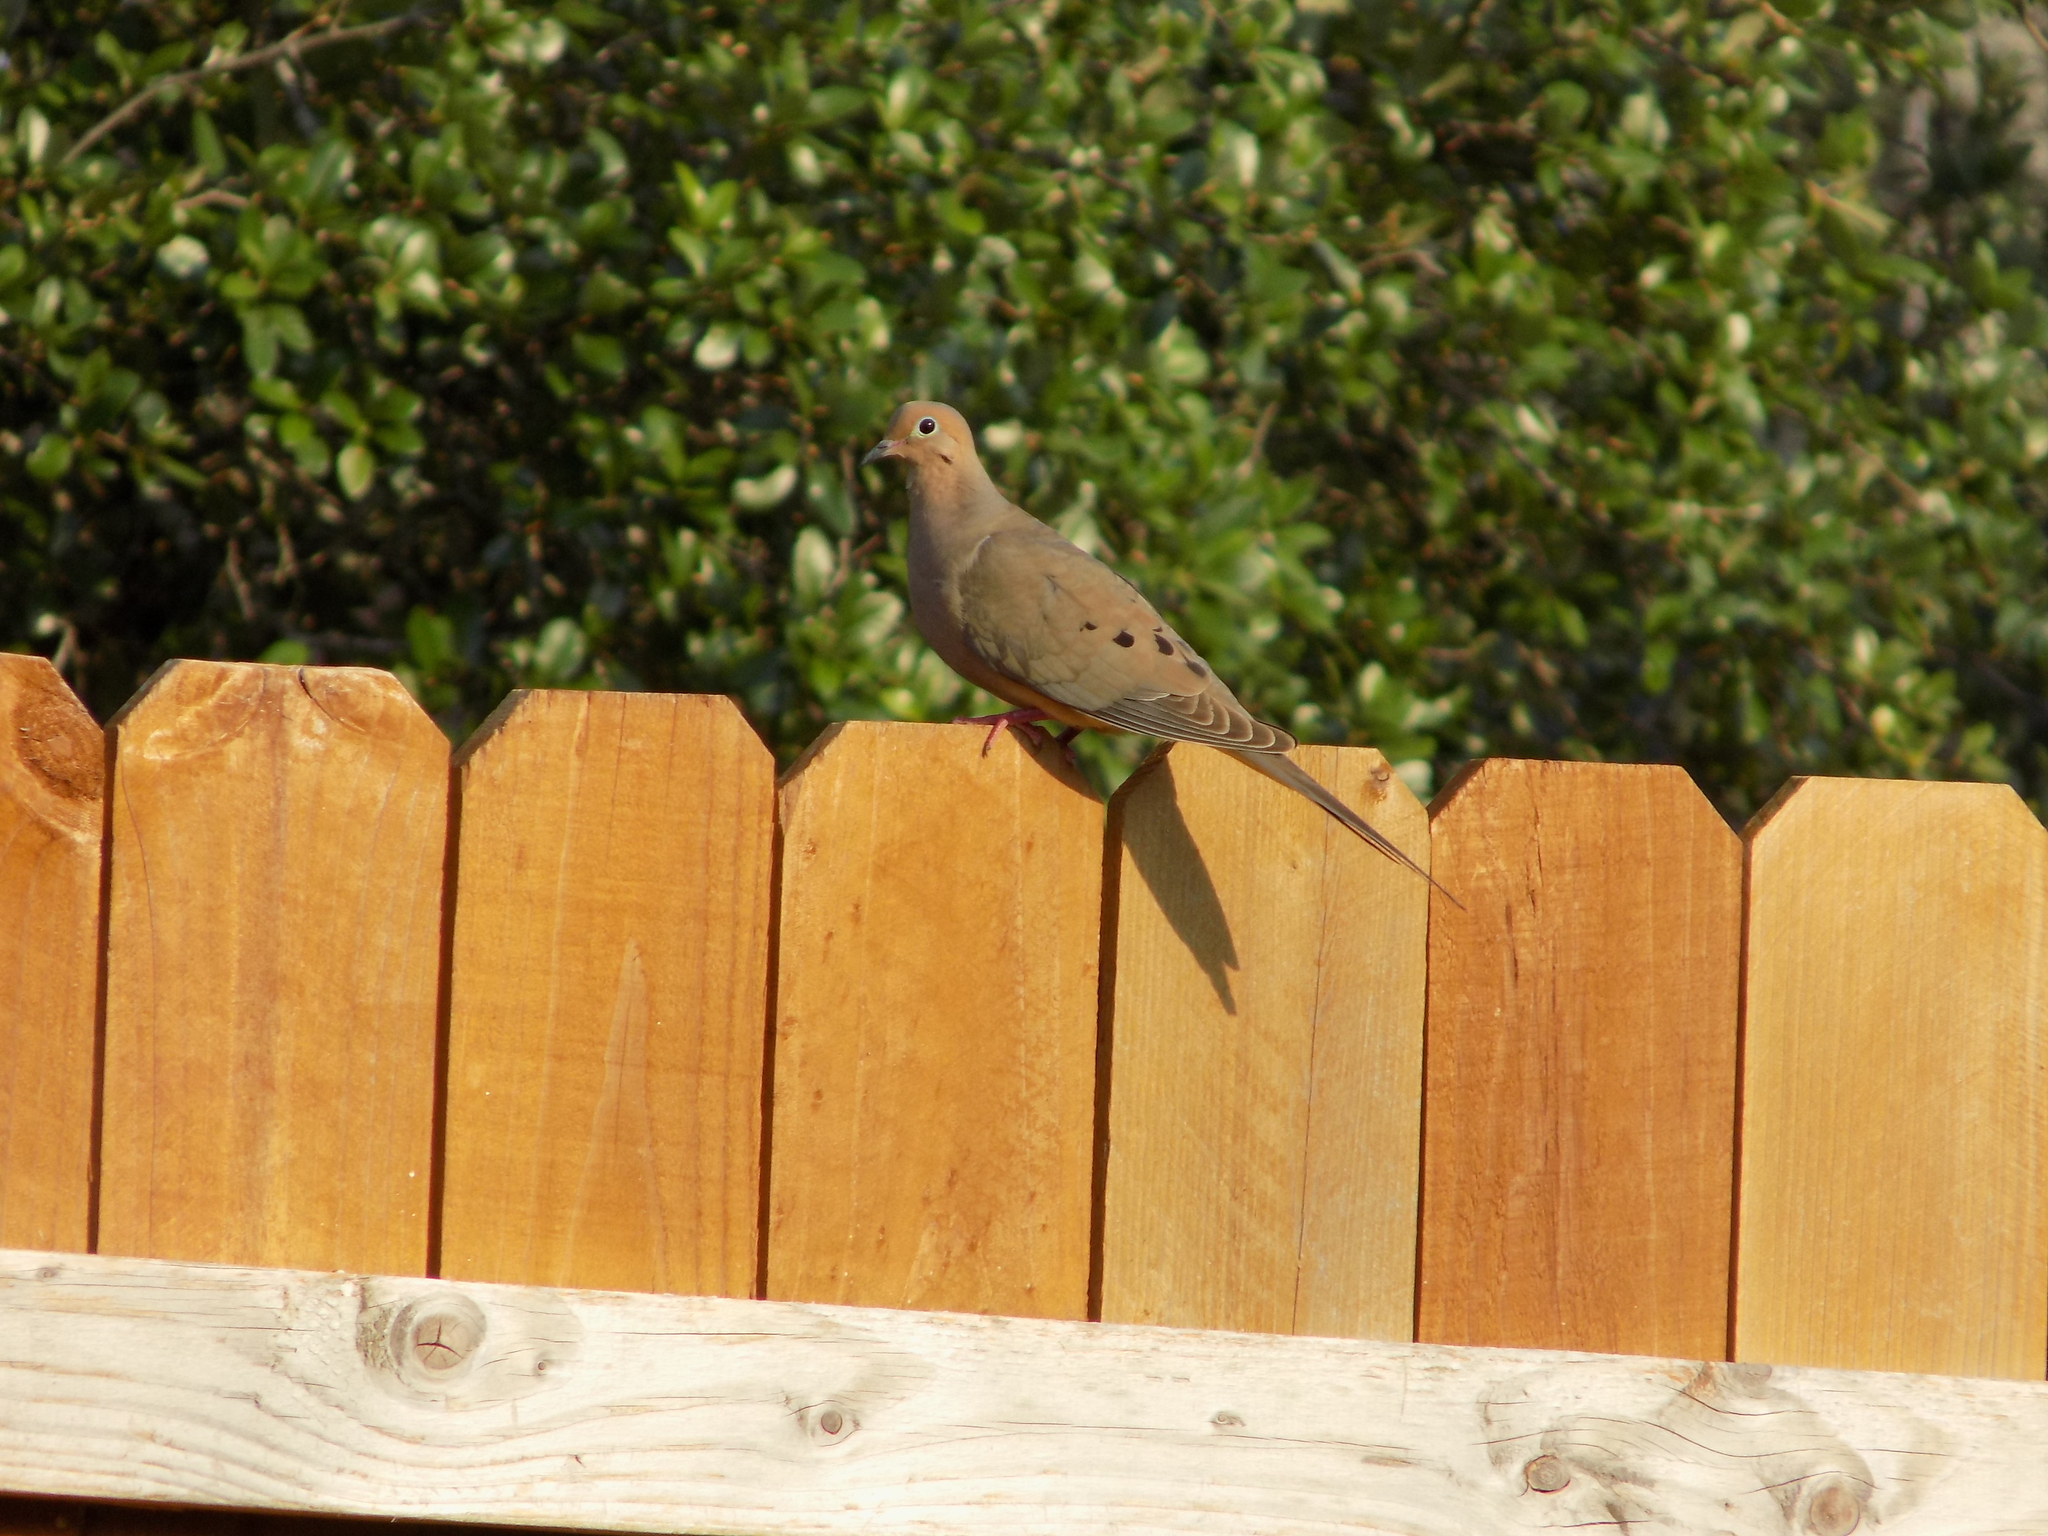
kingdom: Animalia
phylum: Chordata
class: Aves
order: Columbiformes
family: Columbidae
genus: Zenaida
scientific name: Zenaida macroura
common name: Mourning dove
